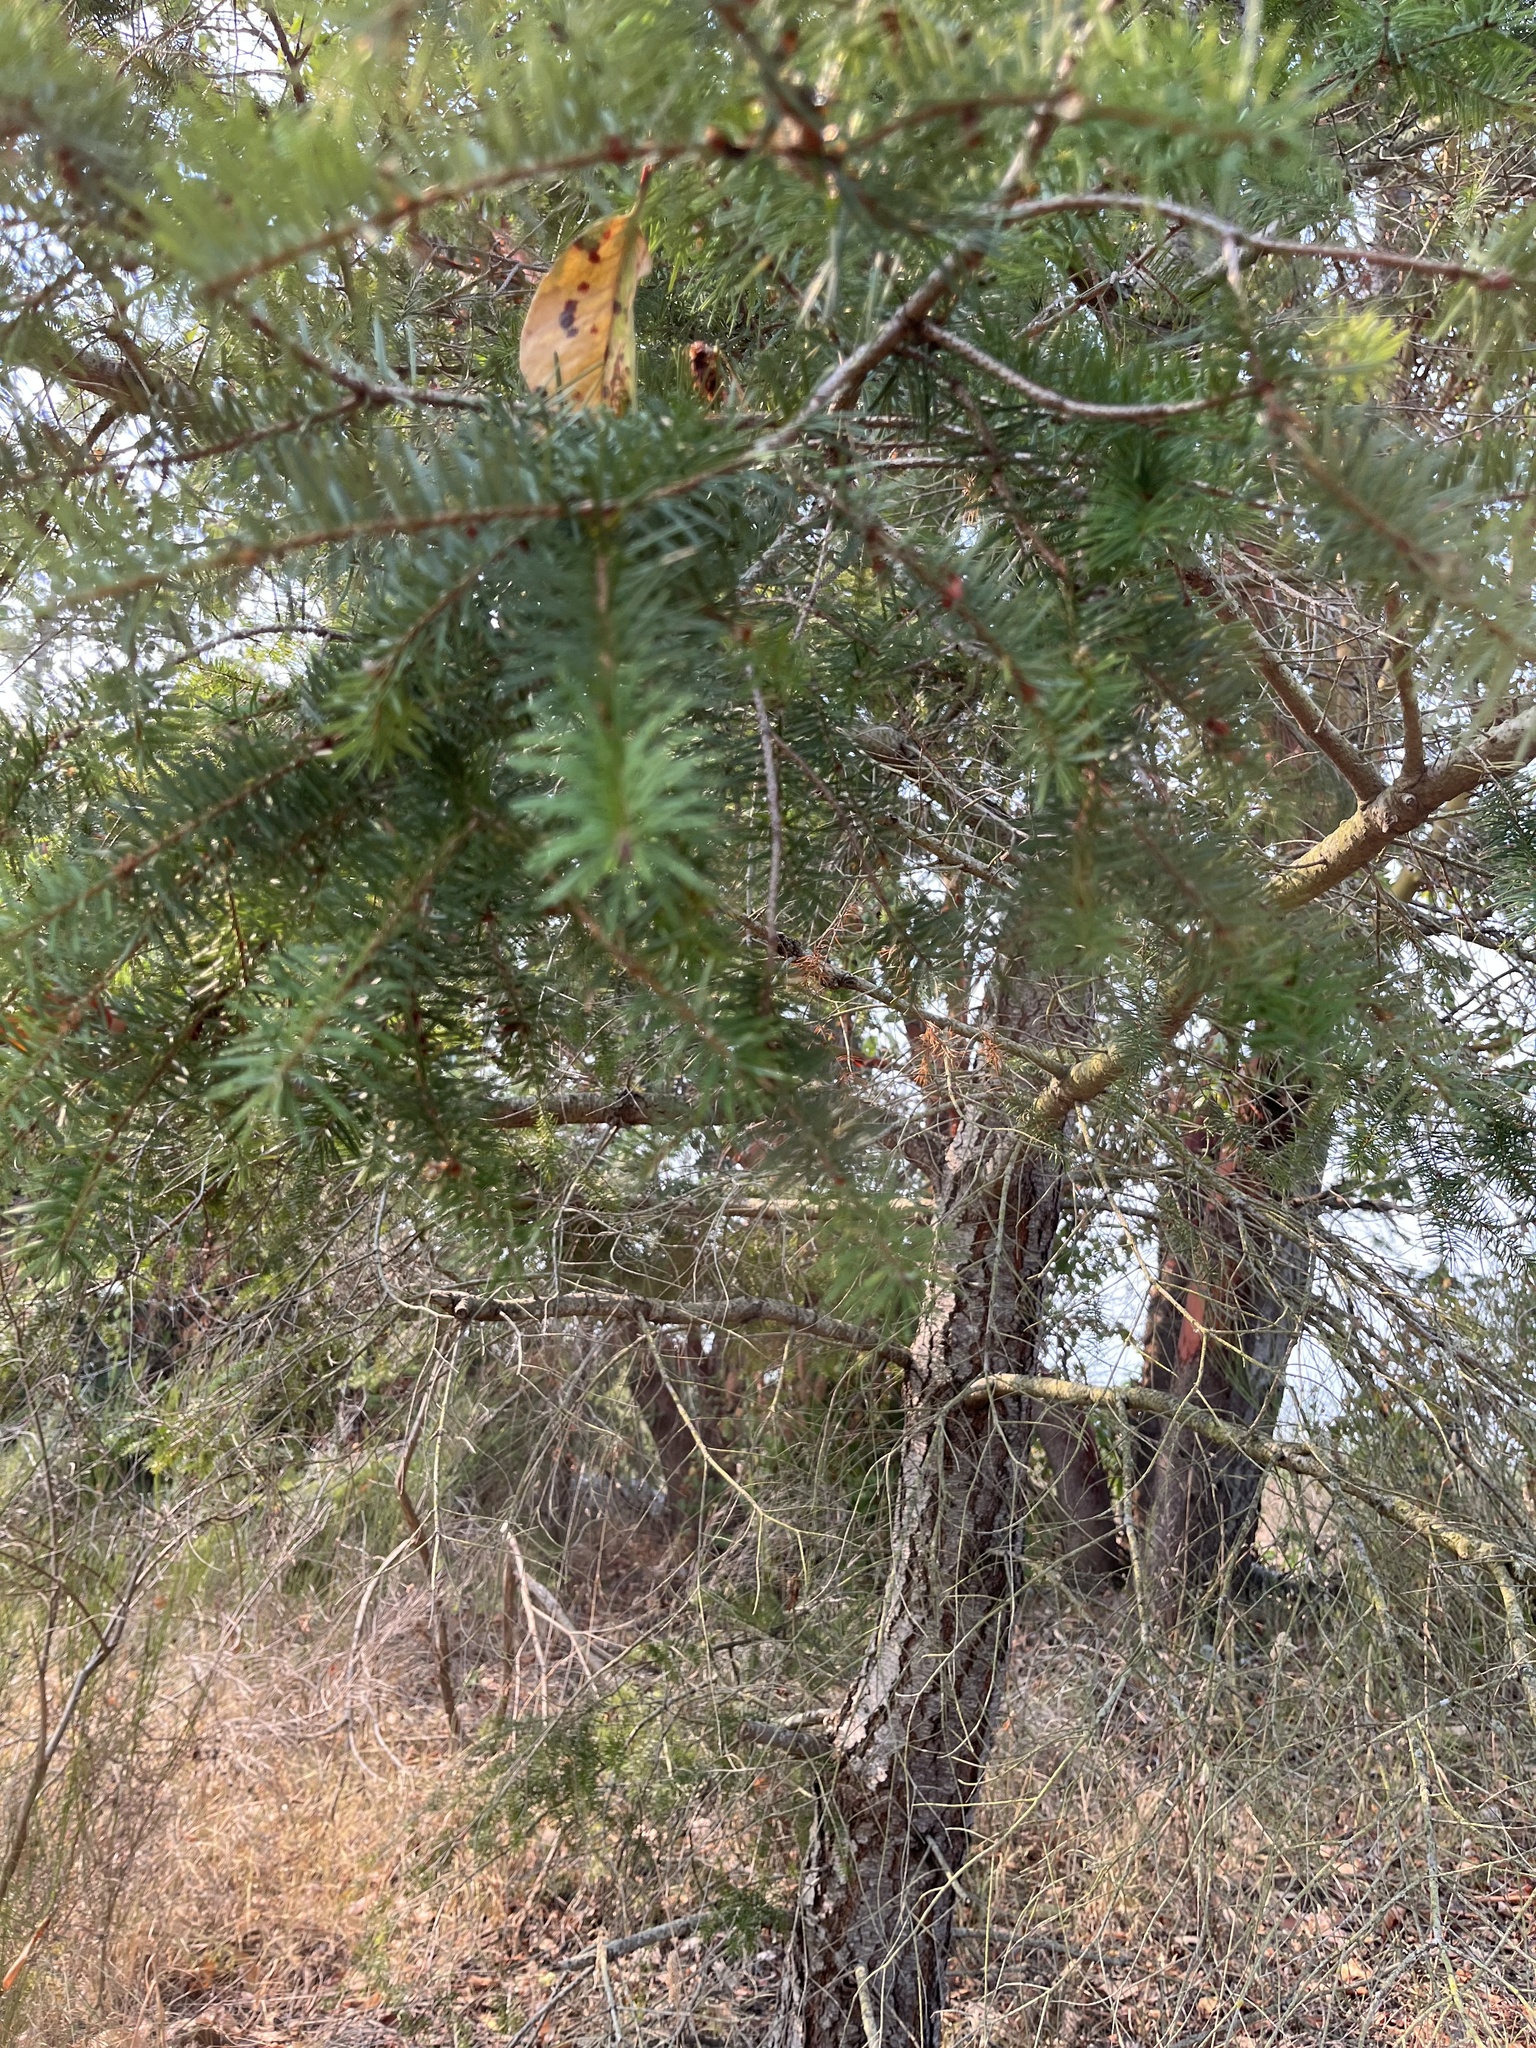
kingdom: Plantae
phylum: Tracheophyta
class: Pinopsida
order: Pinales
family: Pinaceae
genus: Pseudotsuga
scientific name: Pseudotsuga menziesii
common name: Douglas fir
